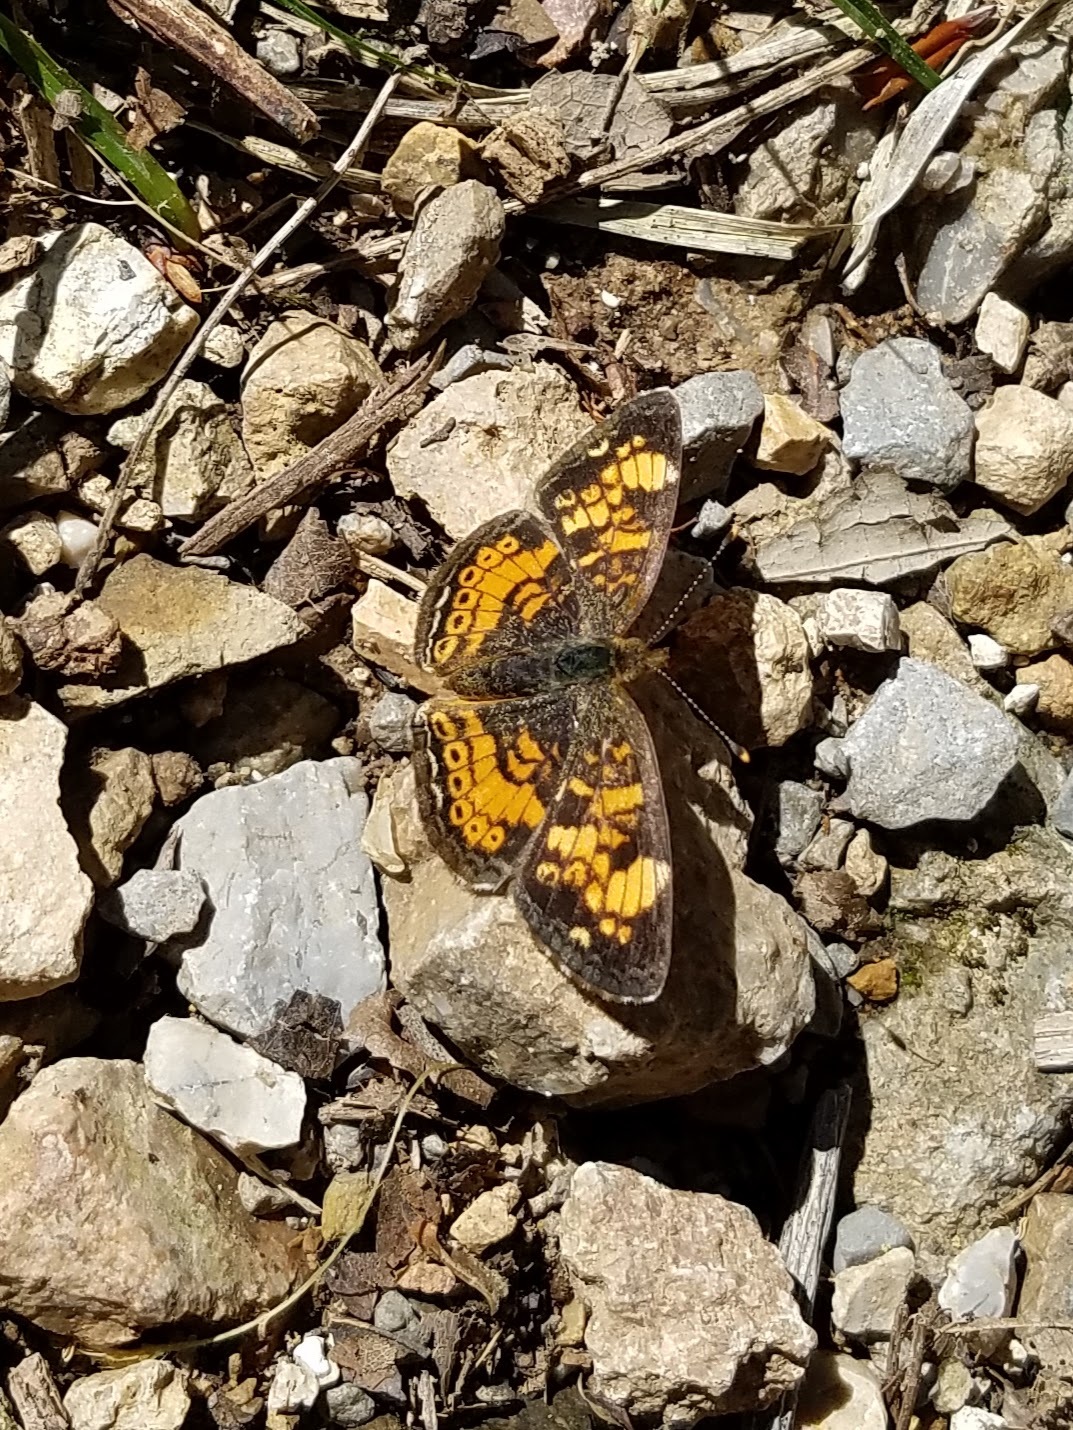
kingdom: Animalia
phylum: Arthropoda
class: Insecta
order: Lepidoptera
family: Nymphalidae
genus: Phyciodes
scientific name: Phyciodes tharos
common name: Pearl crescent
